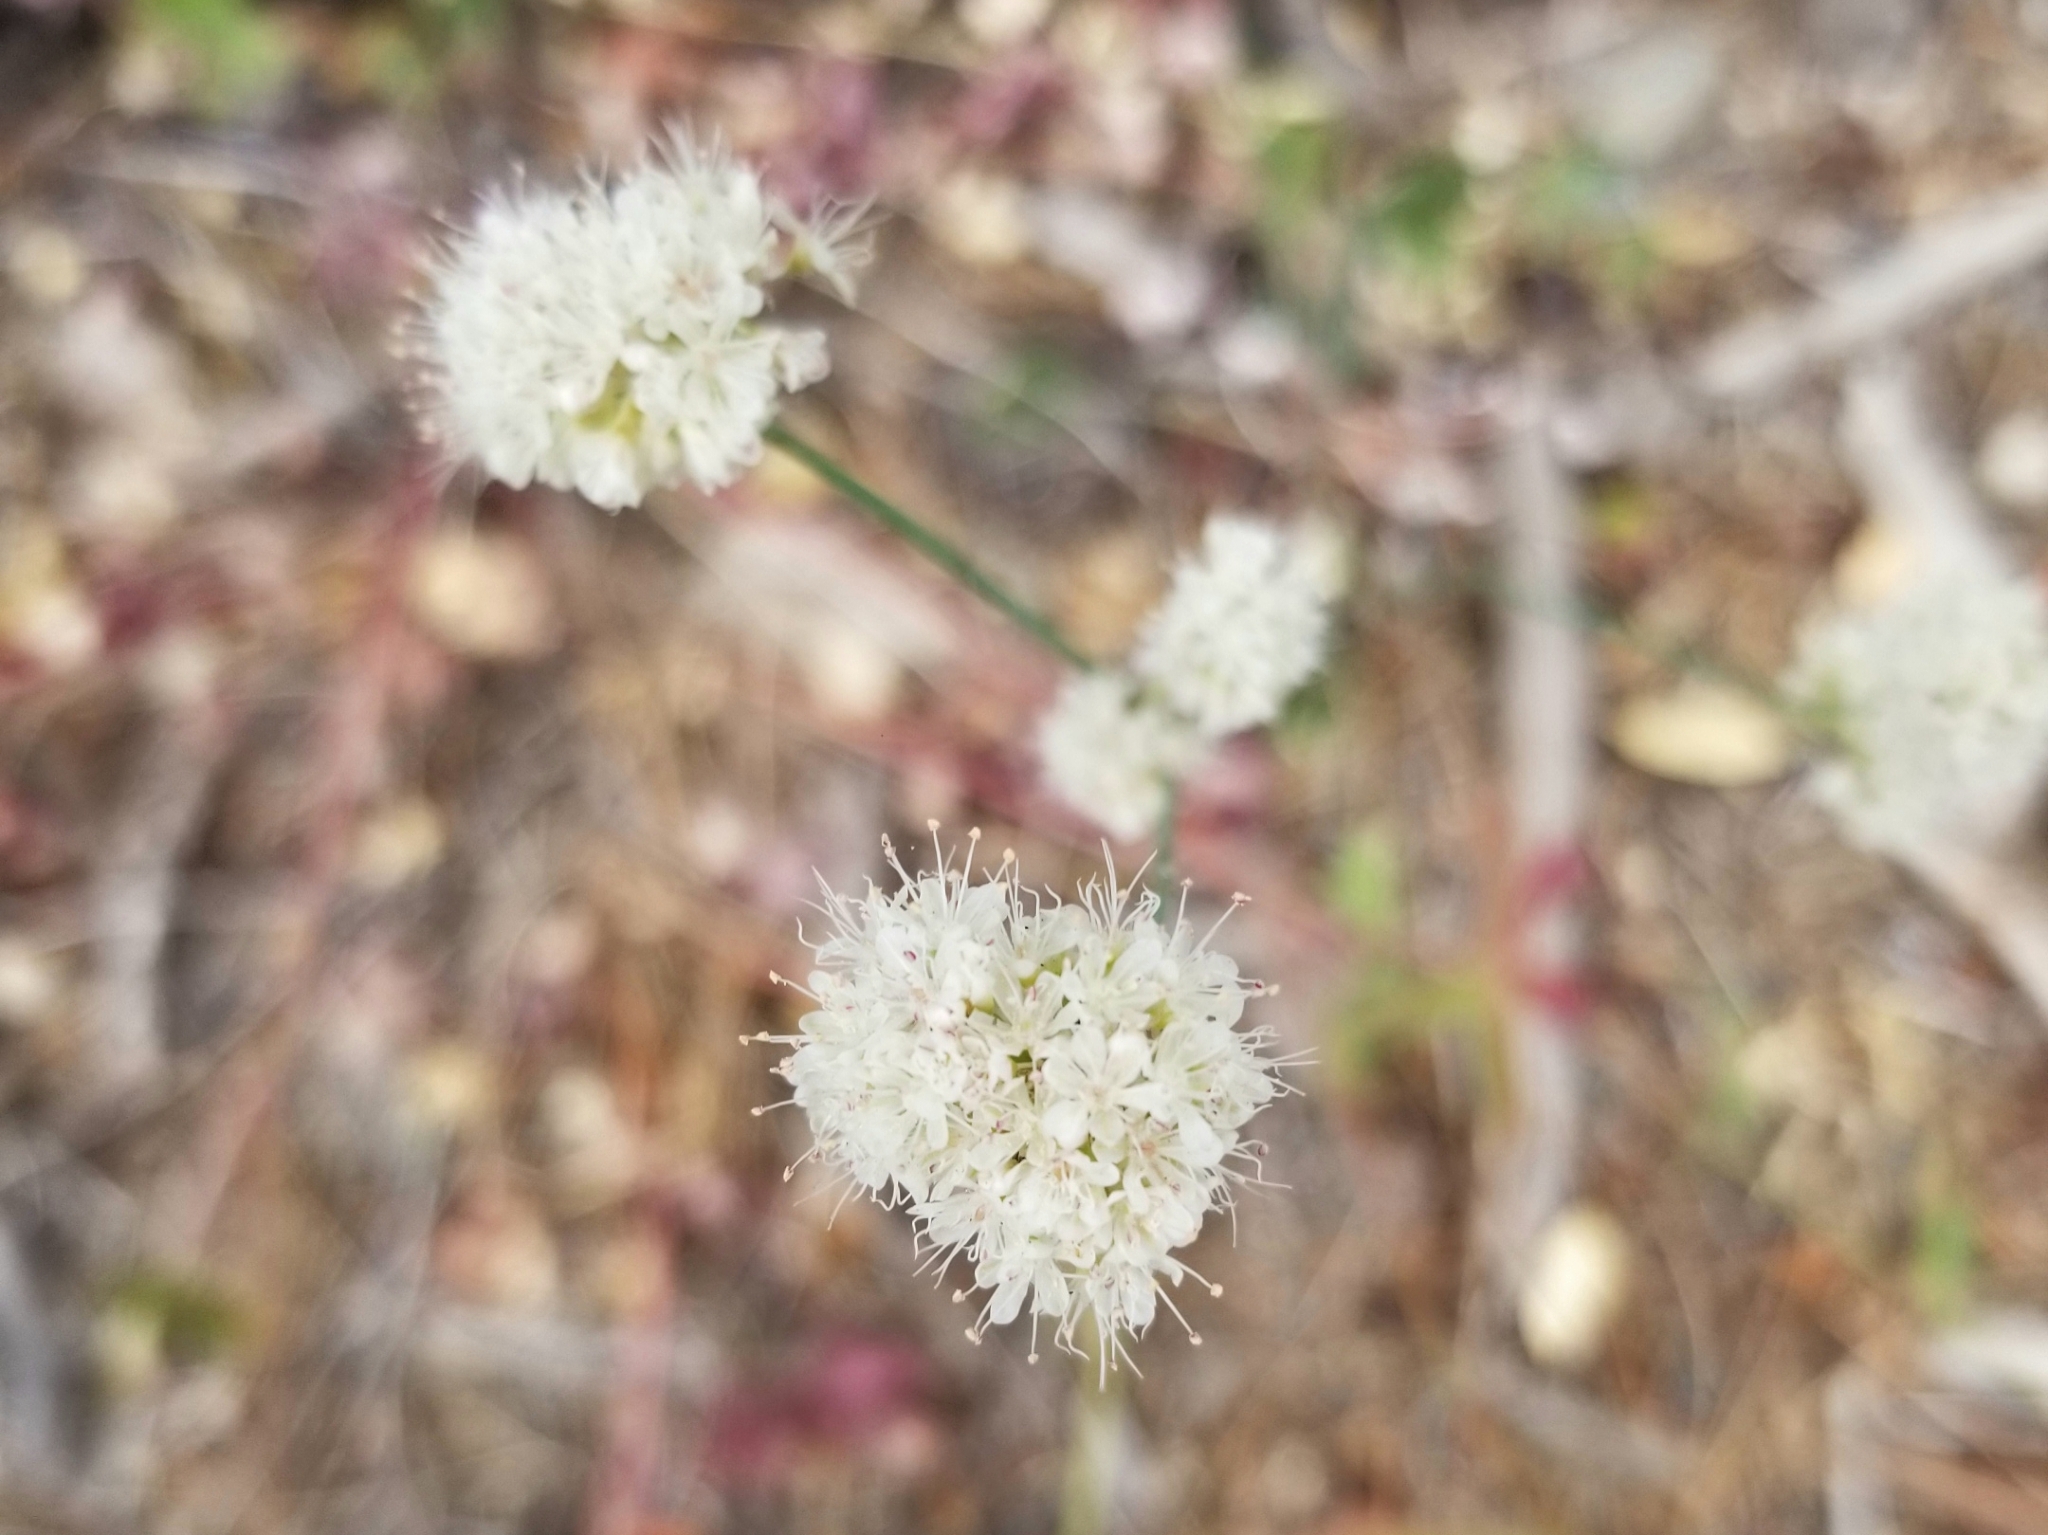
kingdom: Plantae
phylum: Tracheophyta
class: Magnoliopsida
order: Caryophyllales
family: Polygonaceae
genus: Eriogonum
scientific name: Eriogonum nudum
